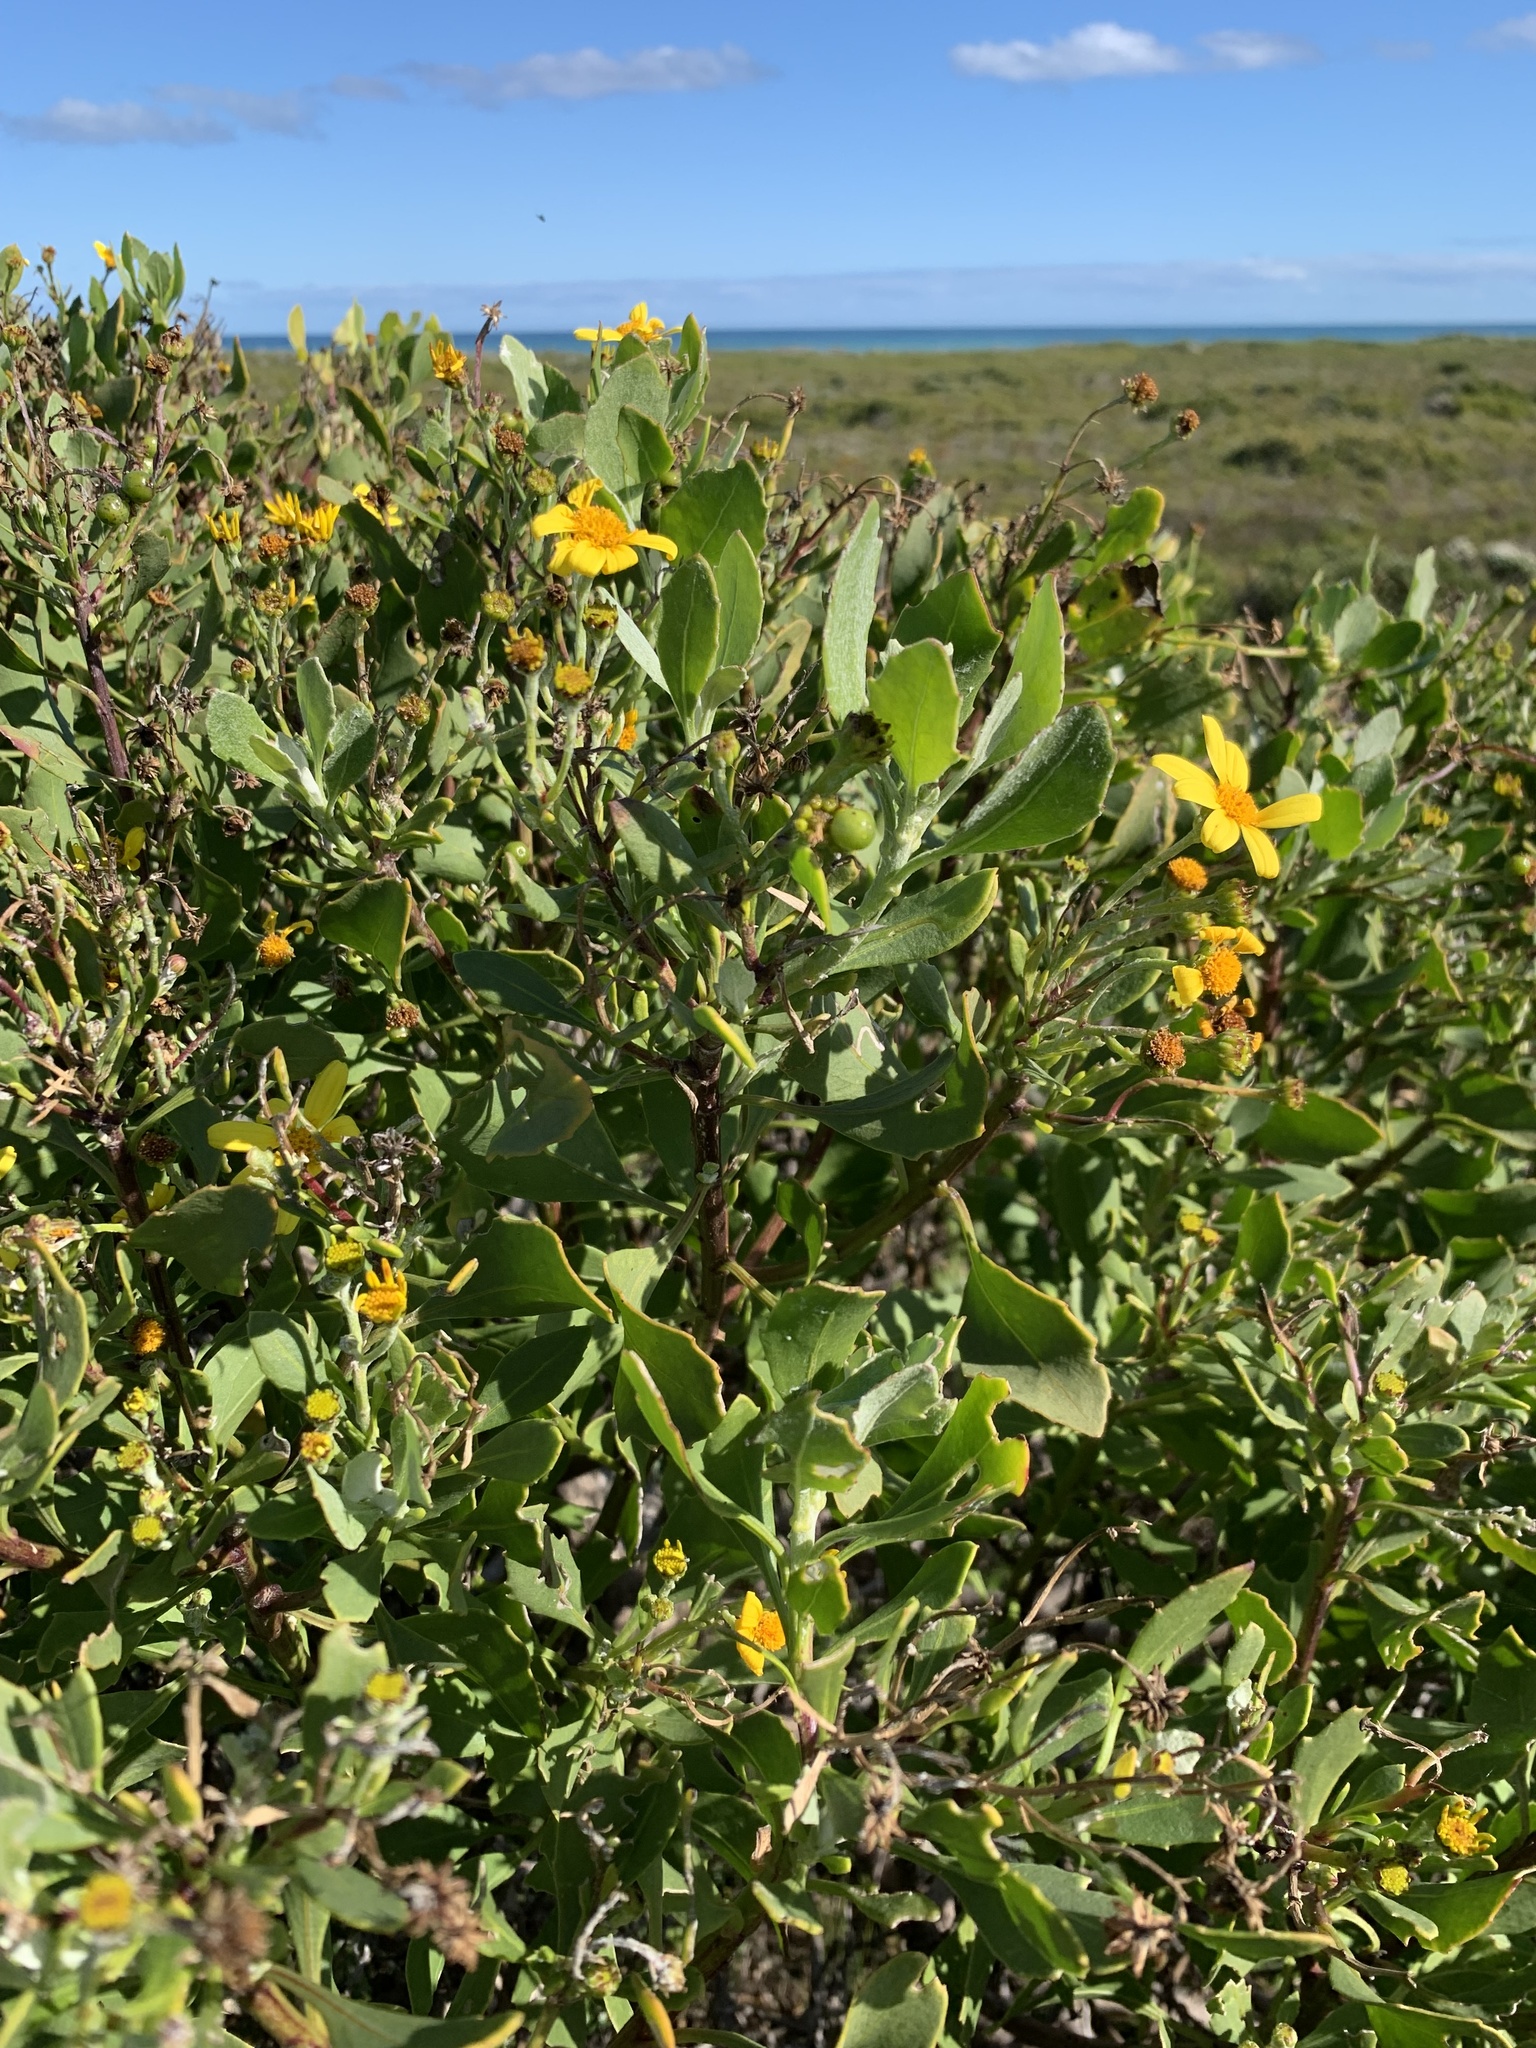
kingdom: Plantae
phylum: Tracheophyta
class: Magnoliopsida
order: Asterales
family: Asteraceae
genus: Osteospermum
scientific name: Osteospermum moniliferum
